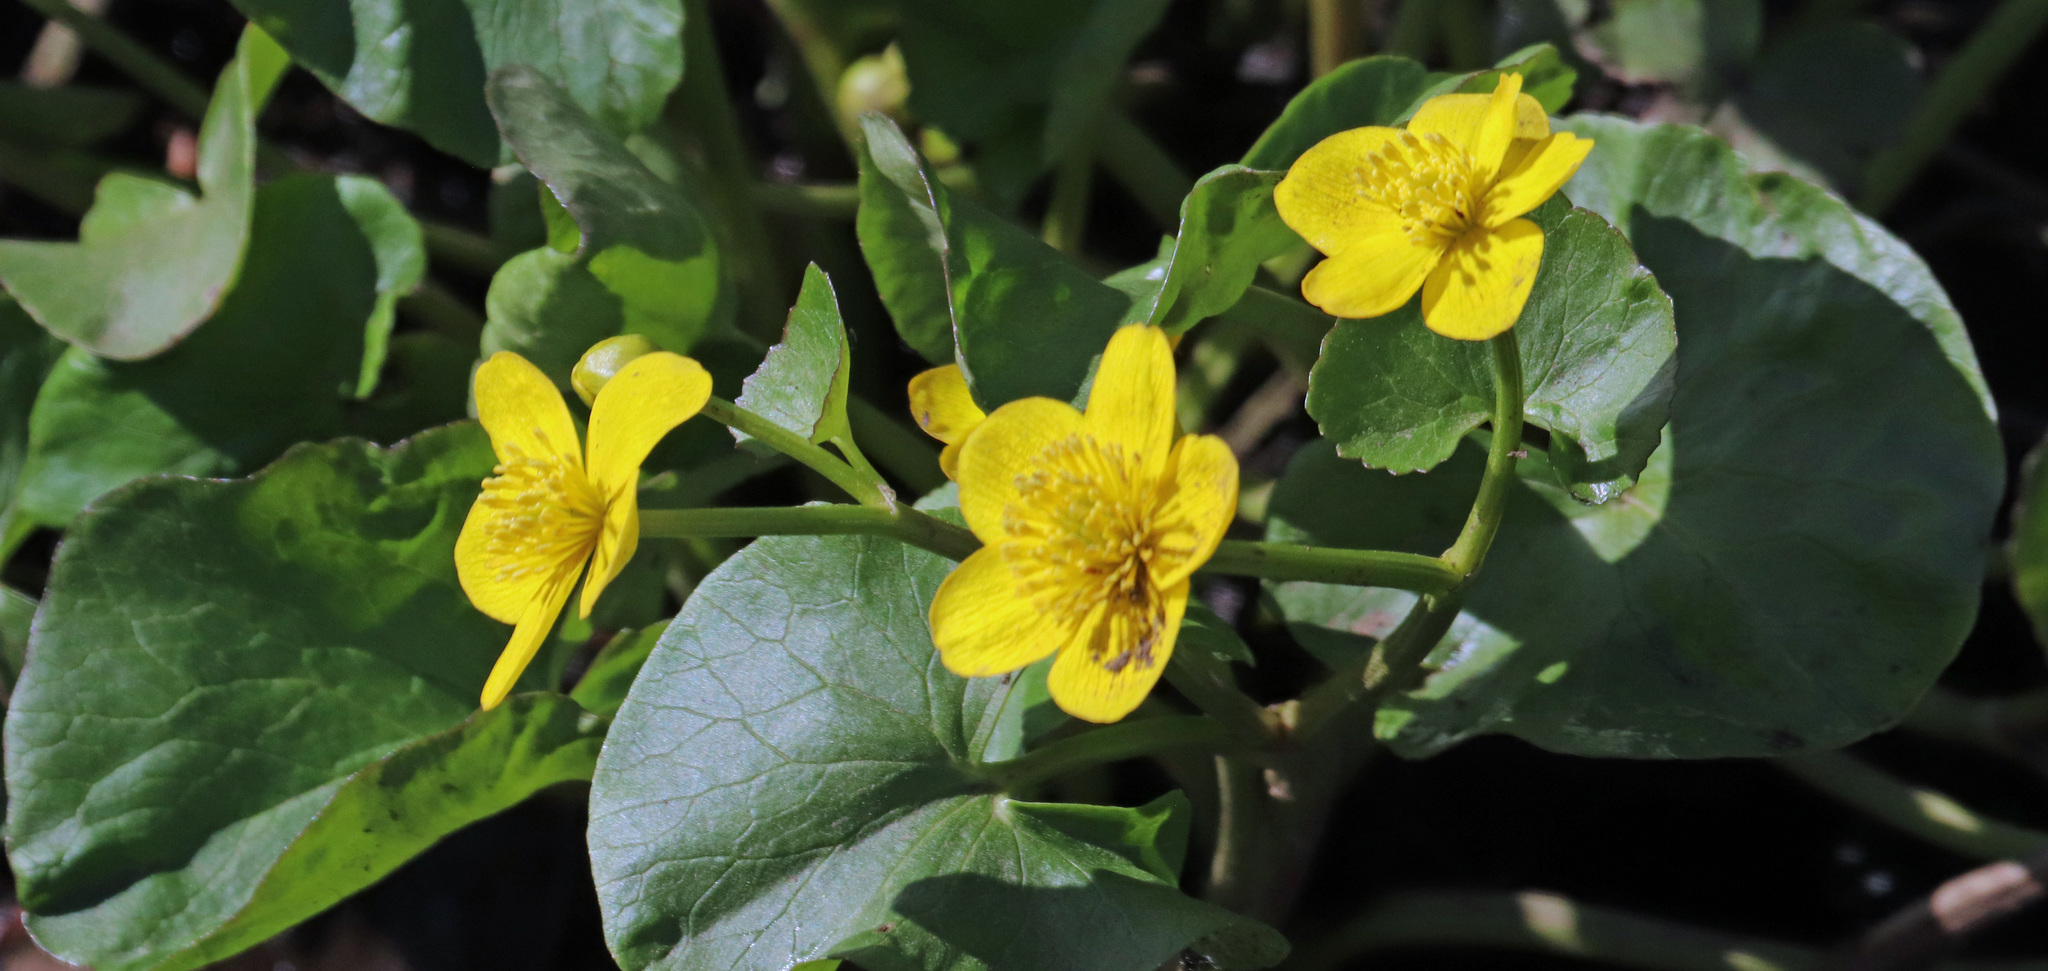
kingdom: Plantae
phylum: Tracheophyta
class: Magnoliopsida
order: Ranunculales
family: Ranunculaceae
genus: Caltha
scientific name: Caltha palustris
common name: Marsh marigold
